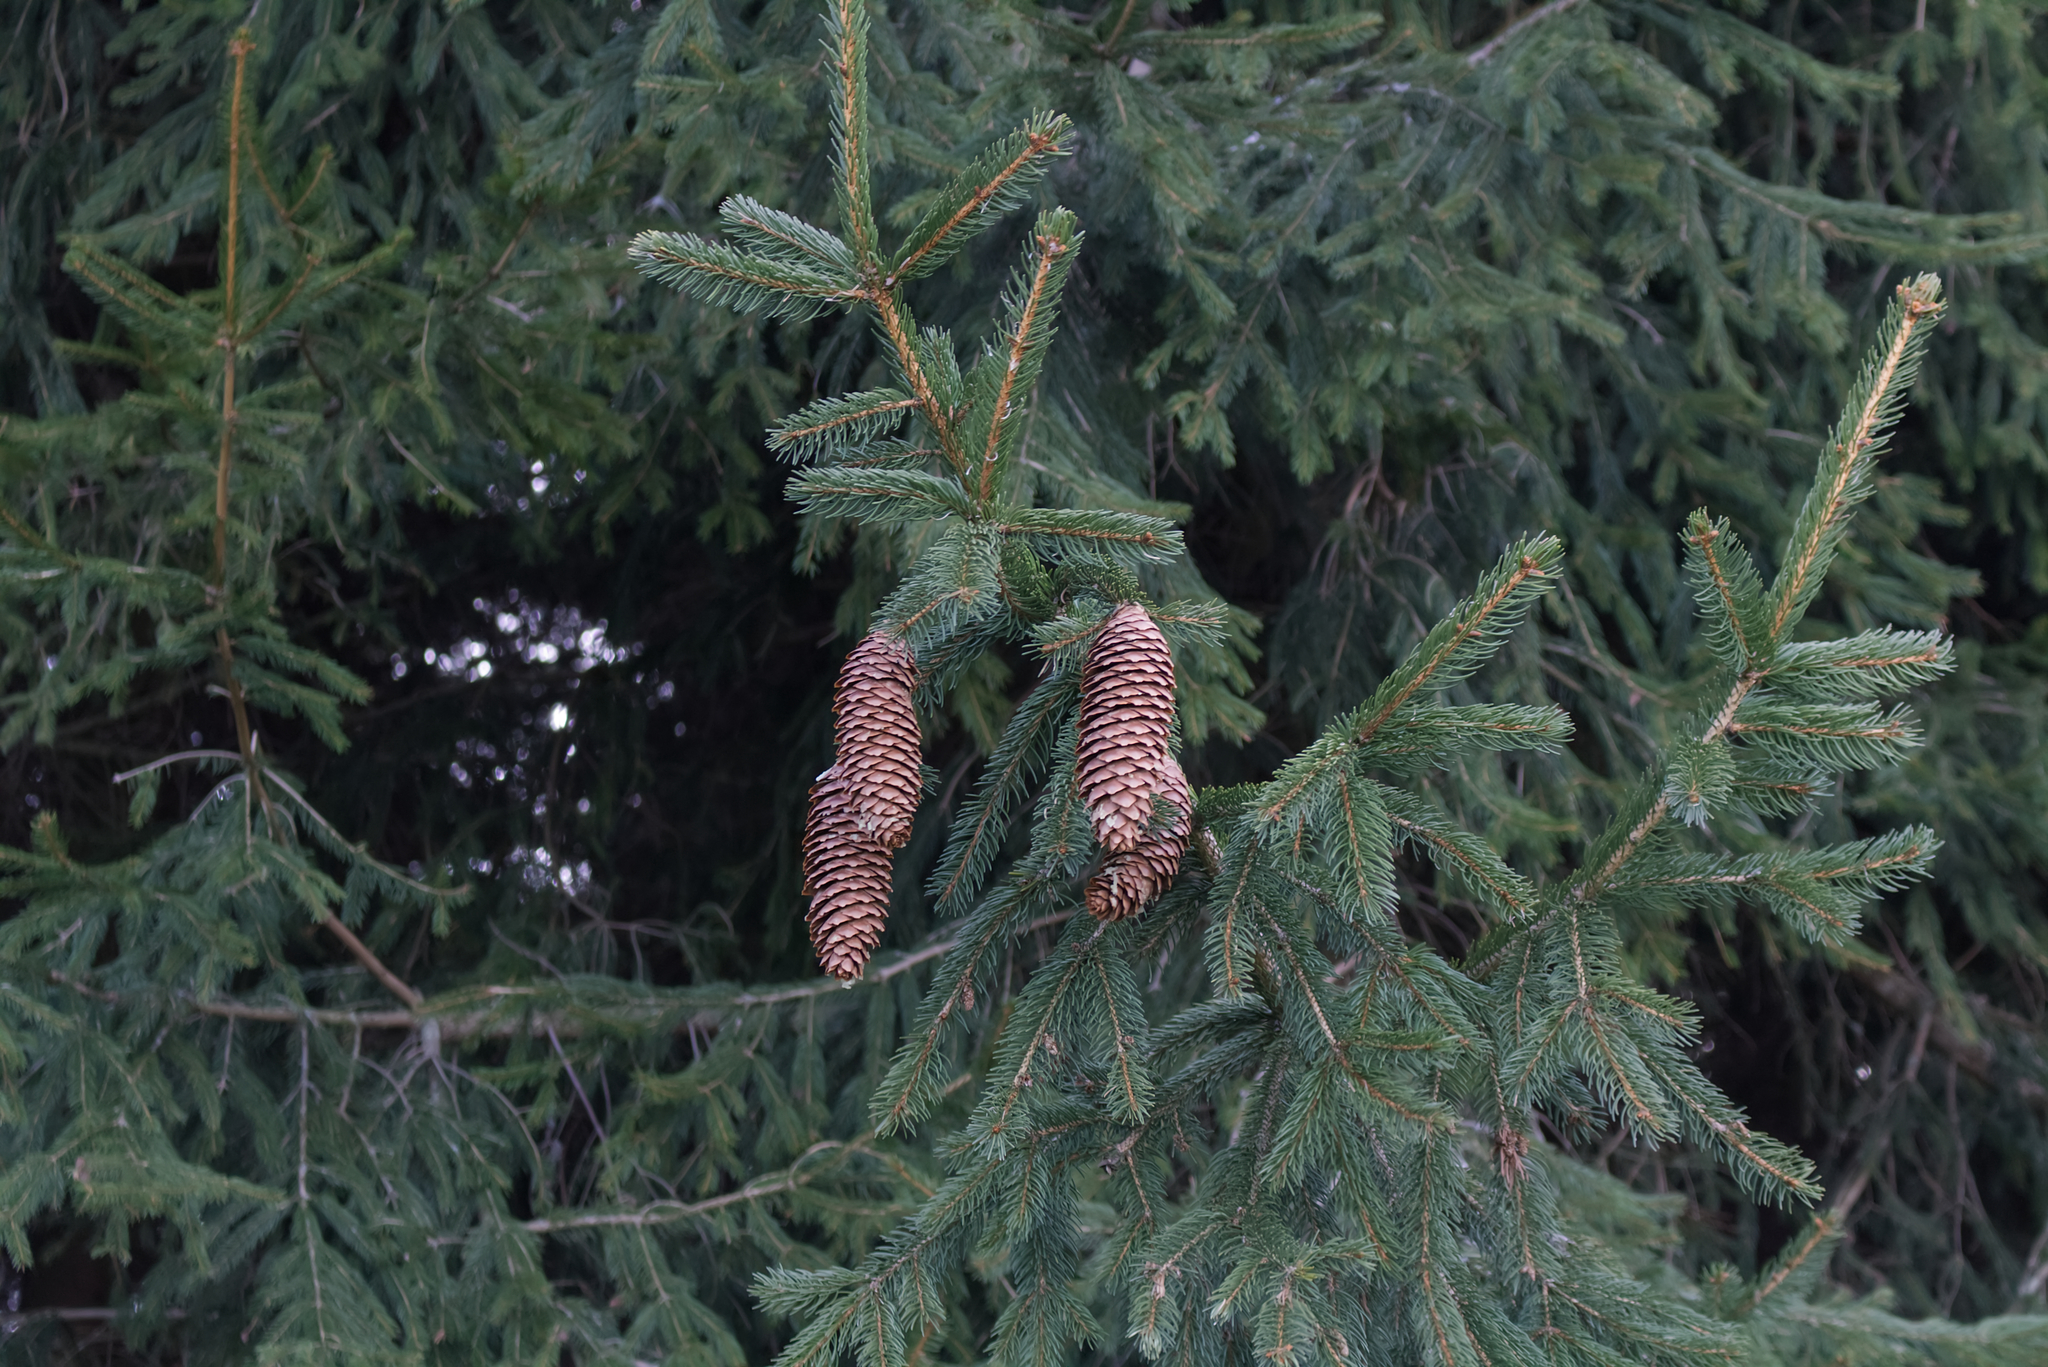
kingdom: Plantae
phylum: Tracheophyta
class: Pinopsida
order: Pinales
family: Pinaceae
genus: Picea
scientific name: Picea abies
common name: Norway spruce
